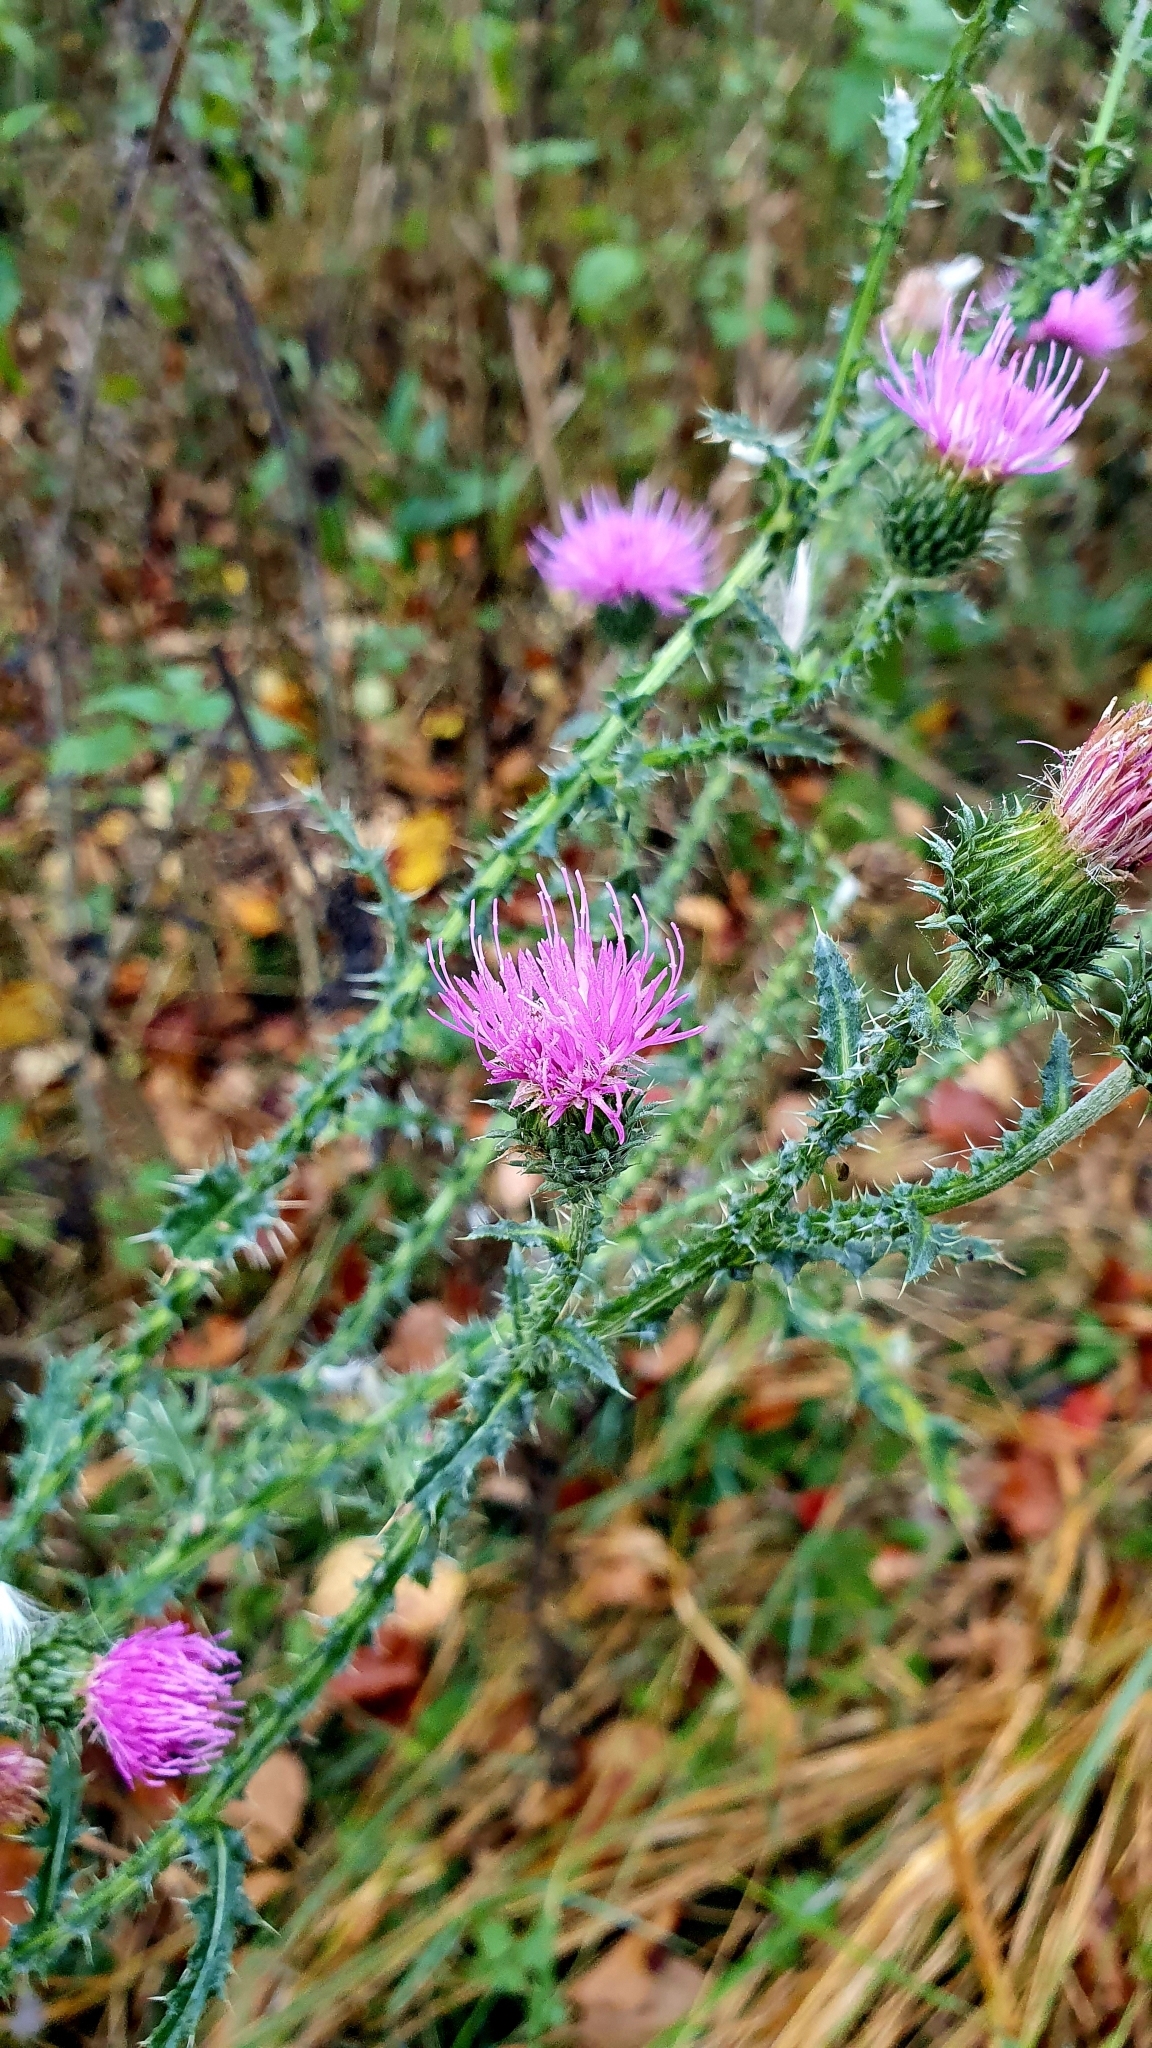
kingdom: Plantae
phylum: Tracheophyta
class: Magnoliopsida
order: Asterales
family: Asteraceae
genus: Carduus
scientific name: Carduus acanthoides
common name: Plumeless thistle
